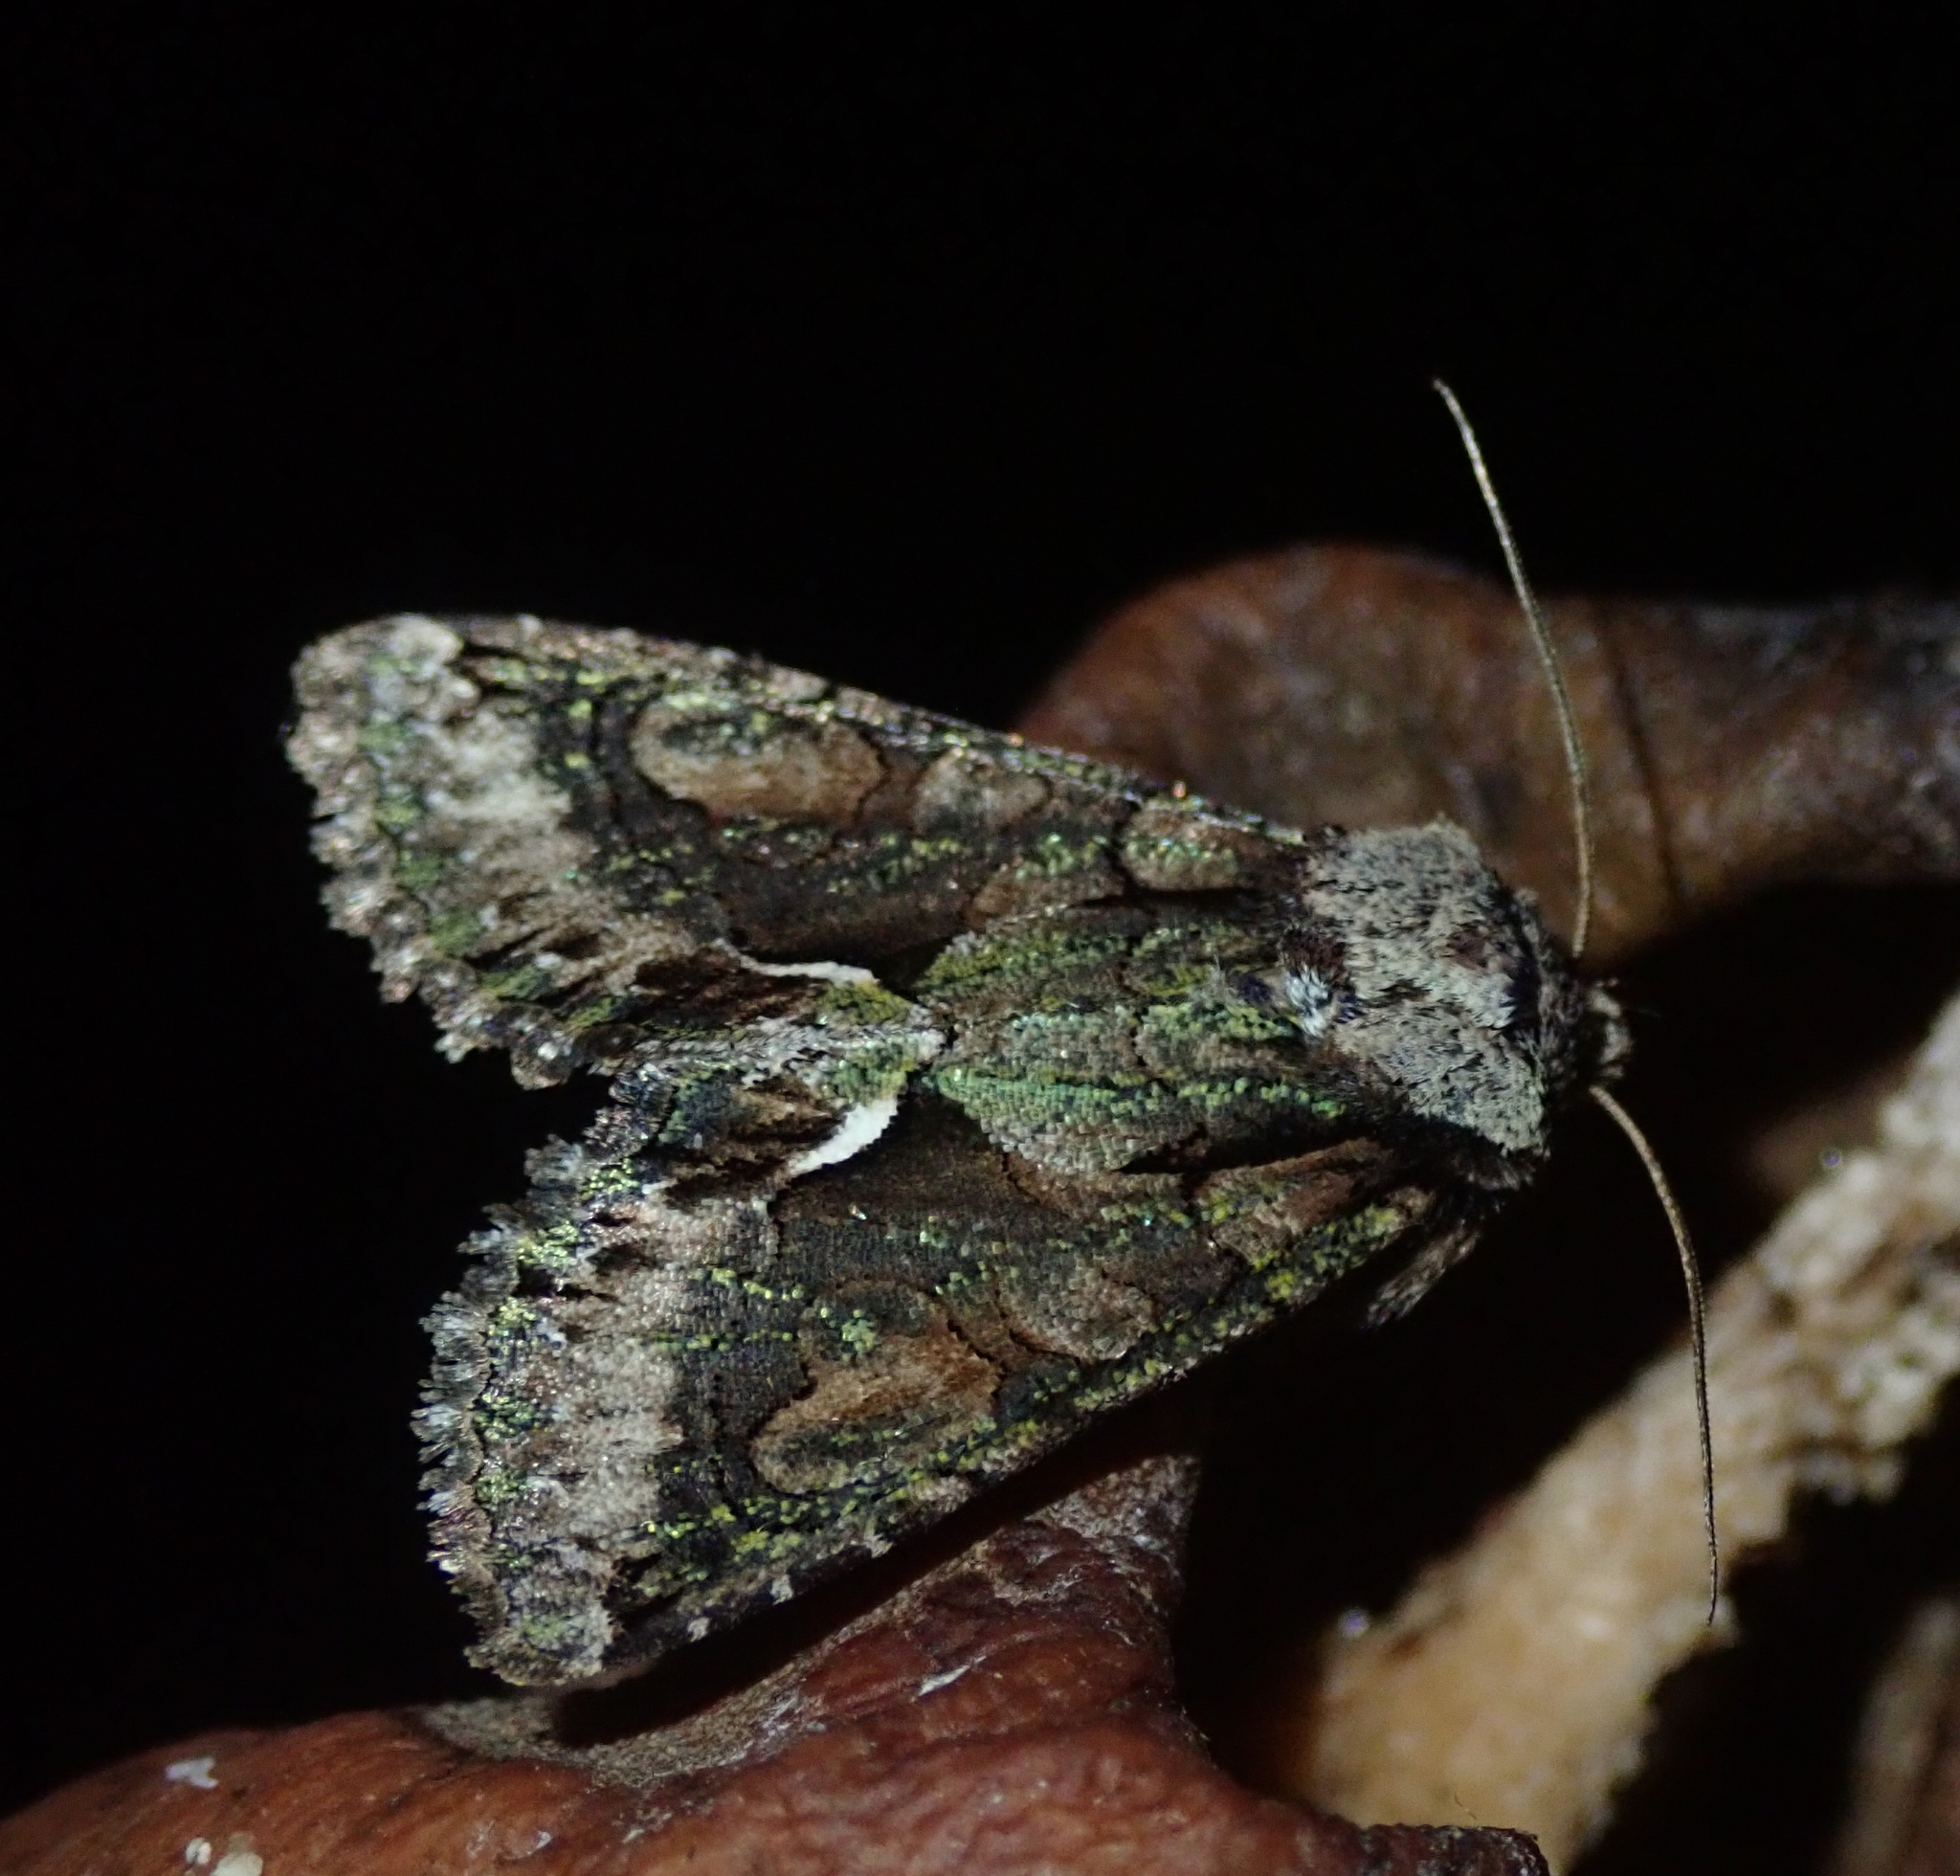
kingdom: Animalia
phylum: Arthropoda
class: Insecta
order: Lepidoptera
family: Noctuidae
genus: Allophyes
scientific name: Allophyes oxyacanthae
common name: Green-brindled crescent
